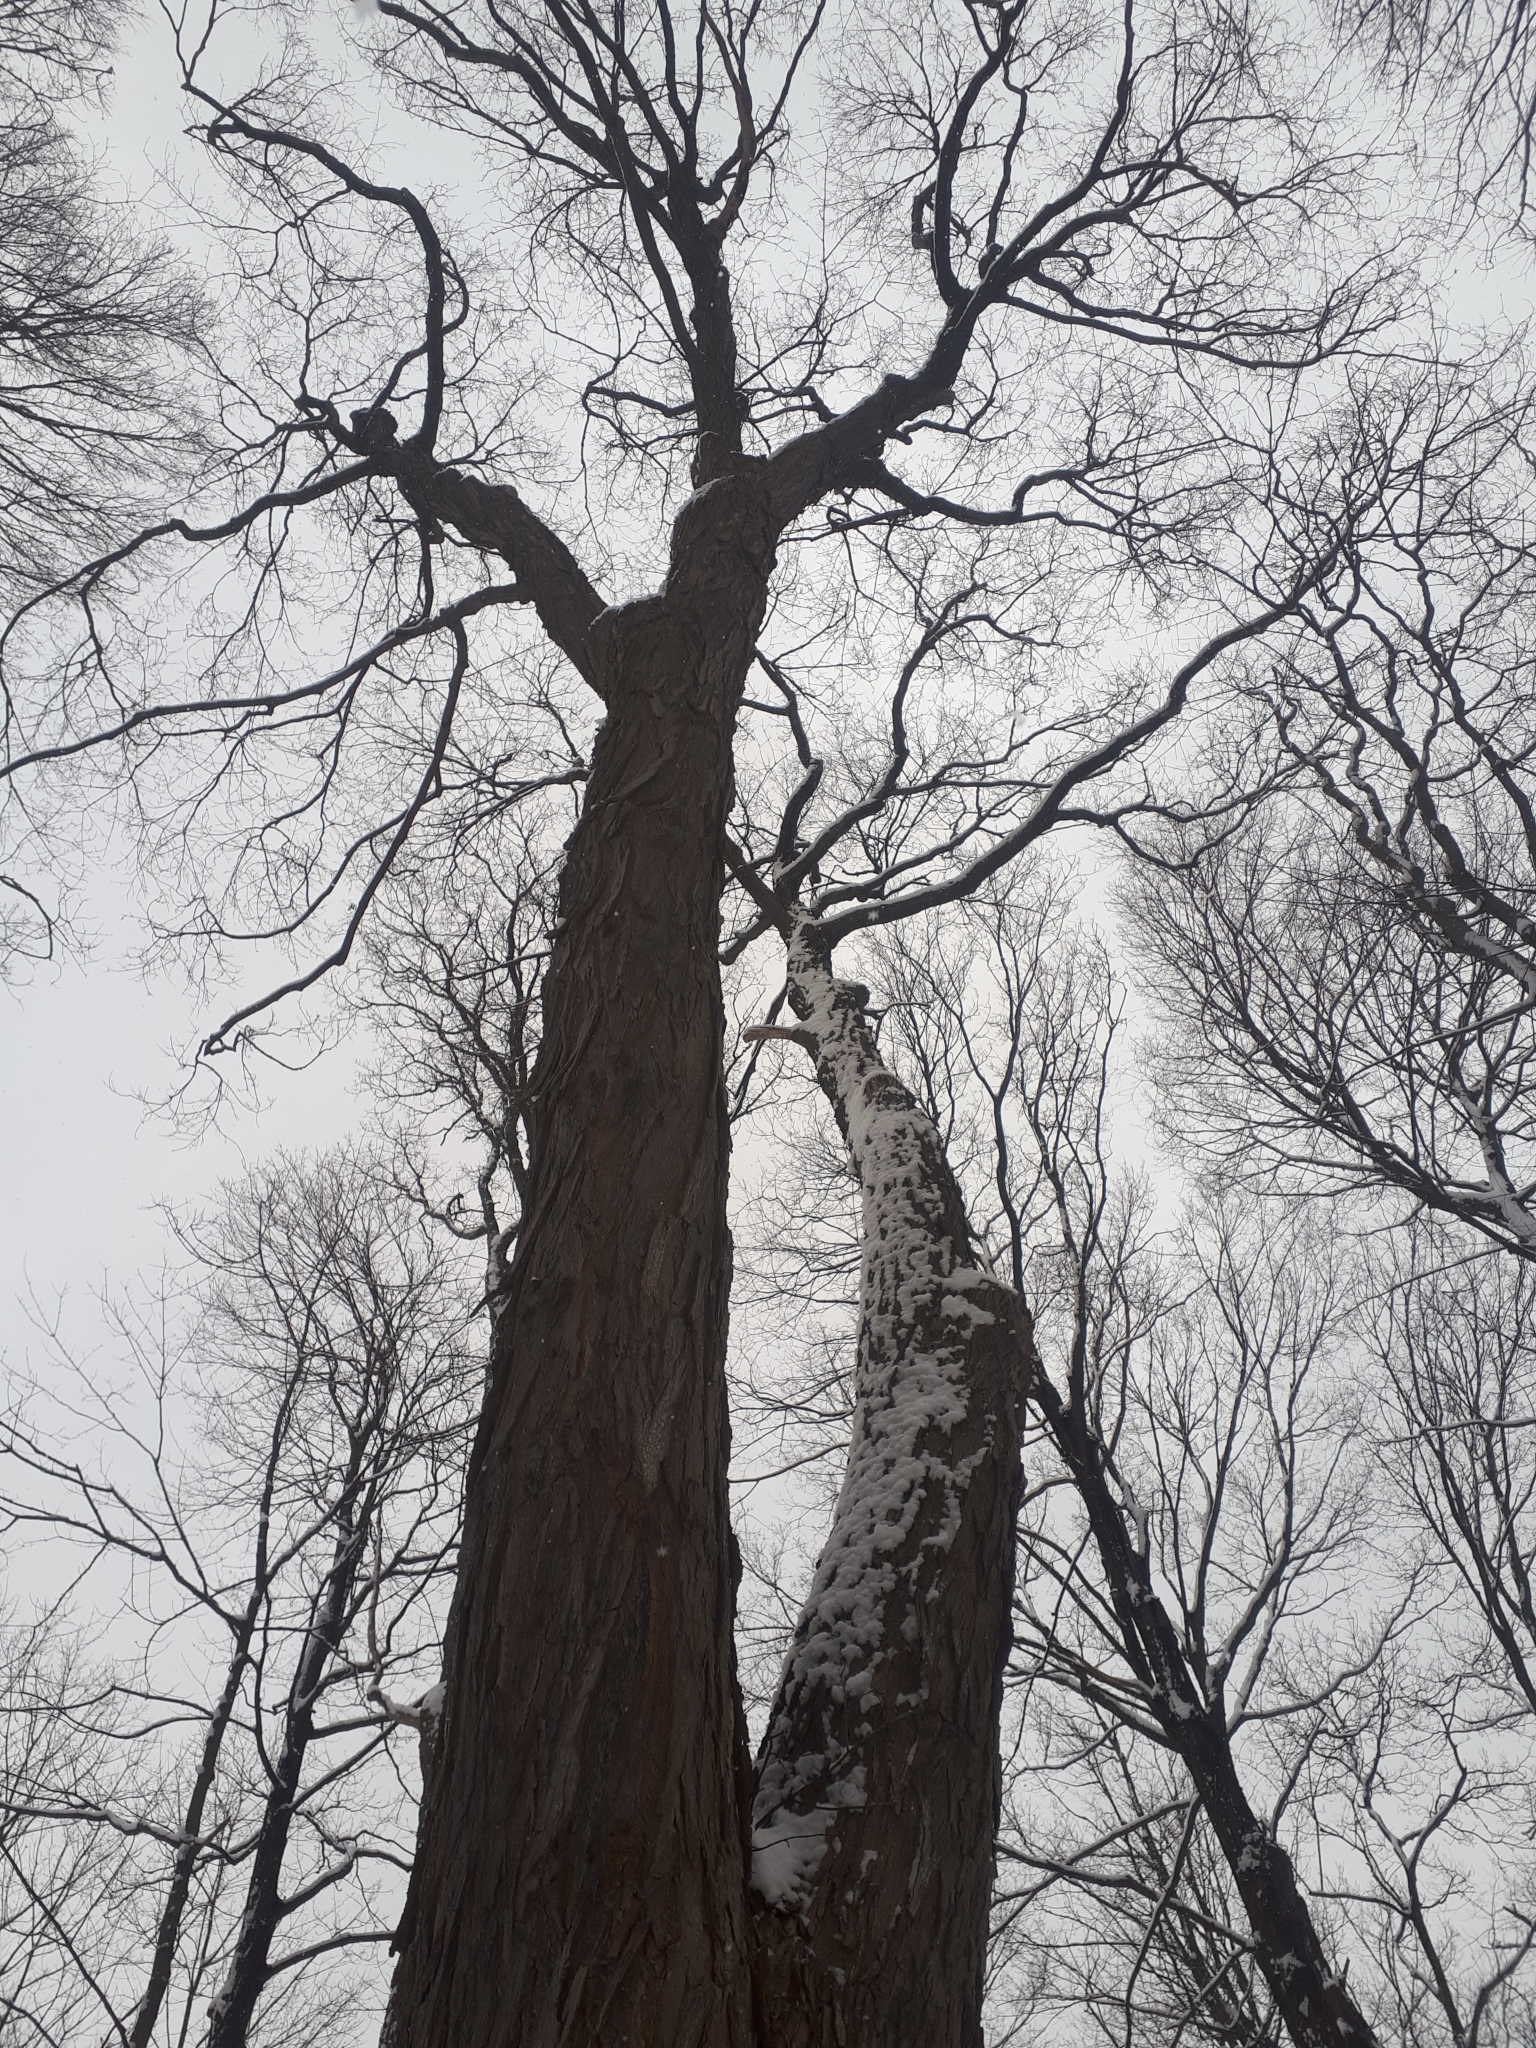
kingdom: Plantae
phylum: Tracheophyta
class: Magnoliopsida
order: Sapindales
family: Sapindaceae
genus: Acer
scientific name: Acer saccharum
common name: Sugar maple
